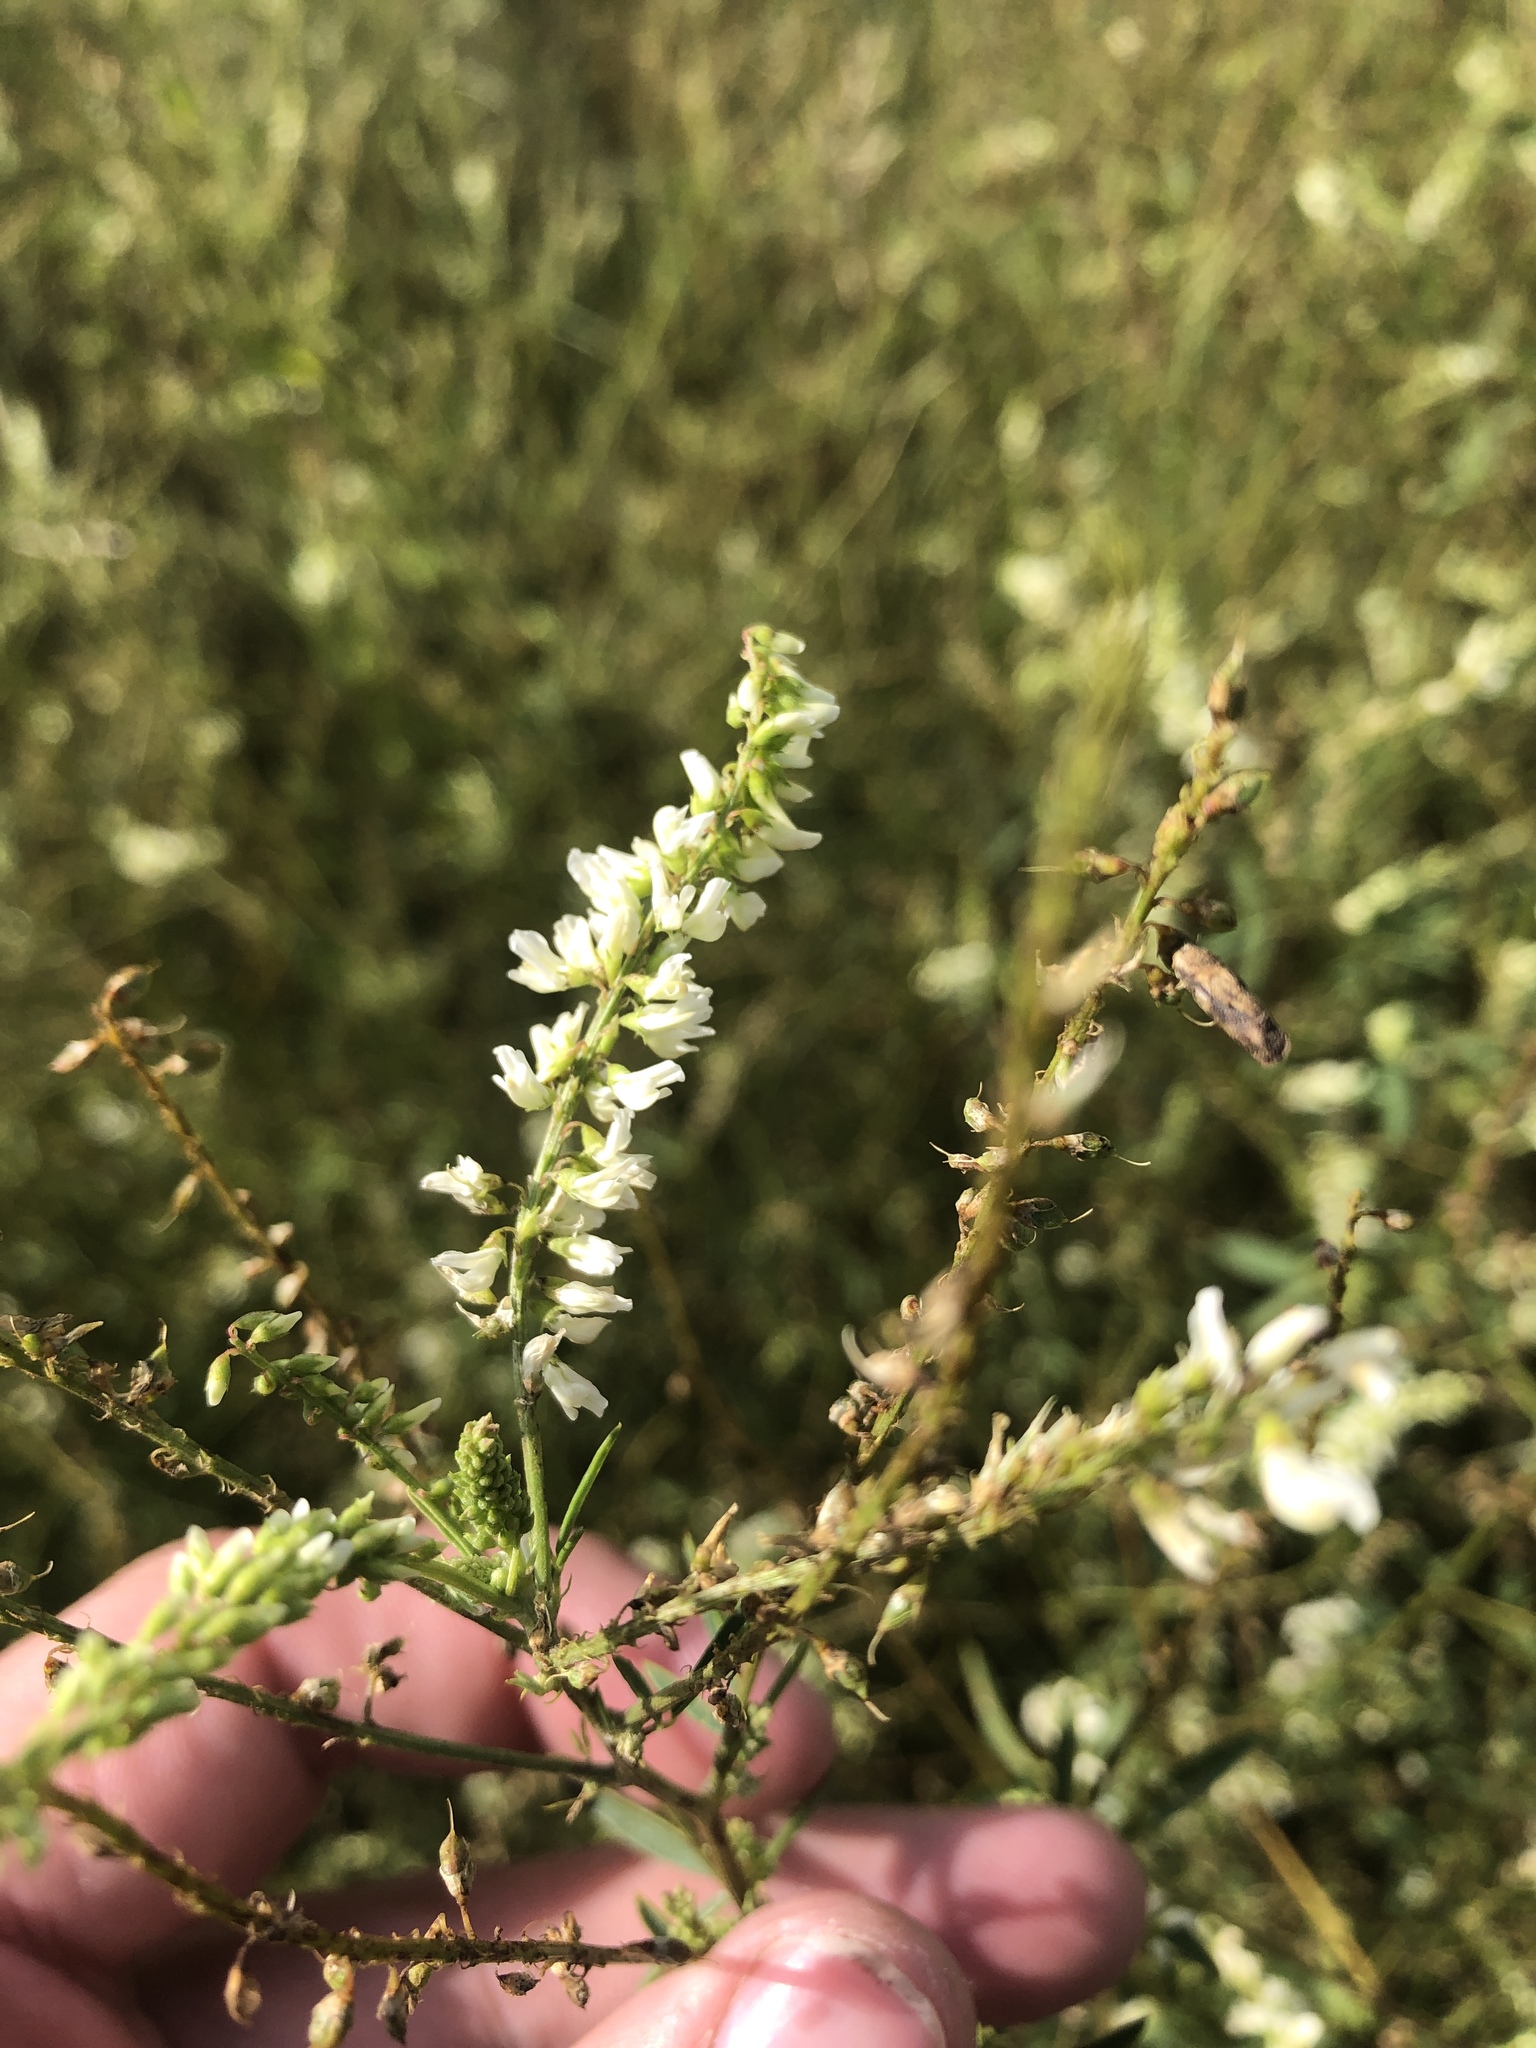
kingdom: Plantae
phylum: Tracheophyta
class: Magnoliopsida
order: Fabales
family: Fabaceae
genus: Melilotus
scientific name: Melilotus albus
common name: White melilot
